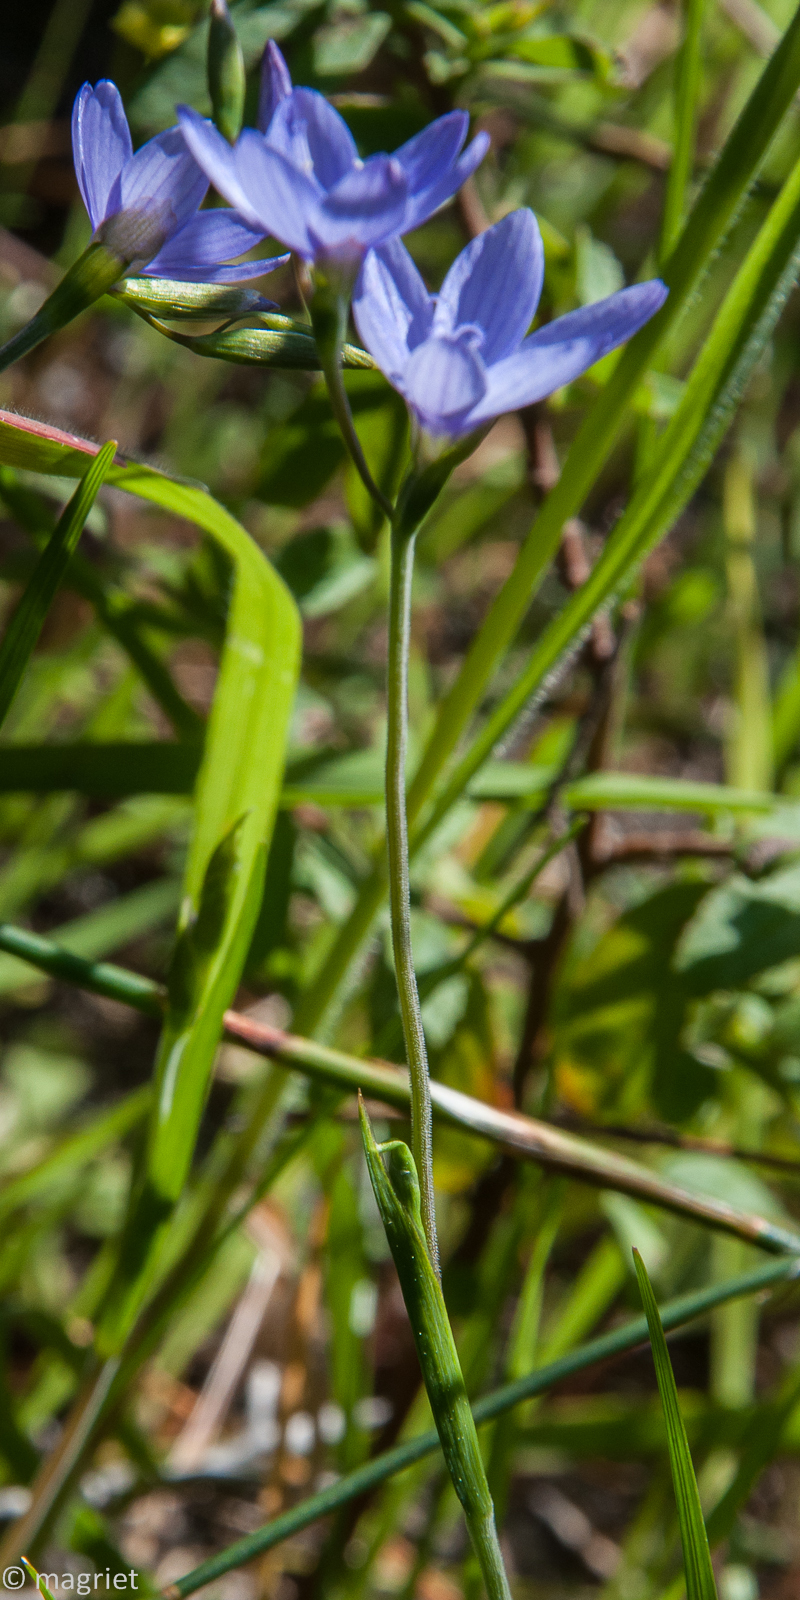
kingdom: Plantae
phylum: Tracheophyta
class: Liliopsida
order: Asparagales
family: Iridaceae
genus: Geissorhiza
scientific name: Geissorhiza aspera
